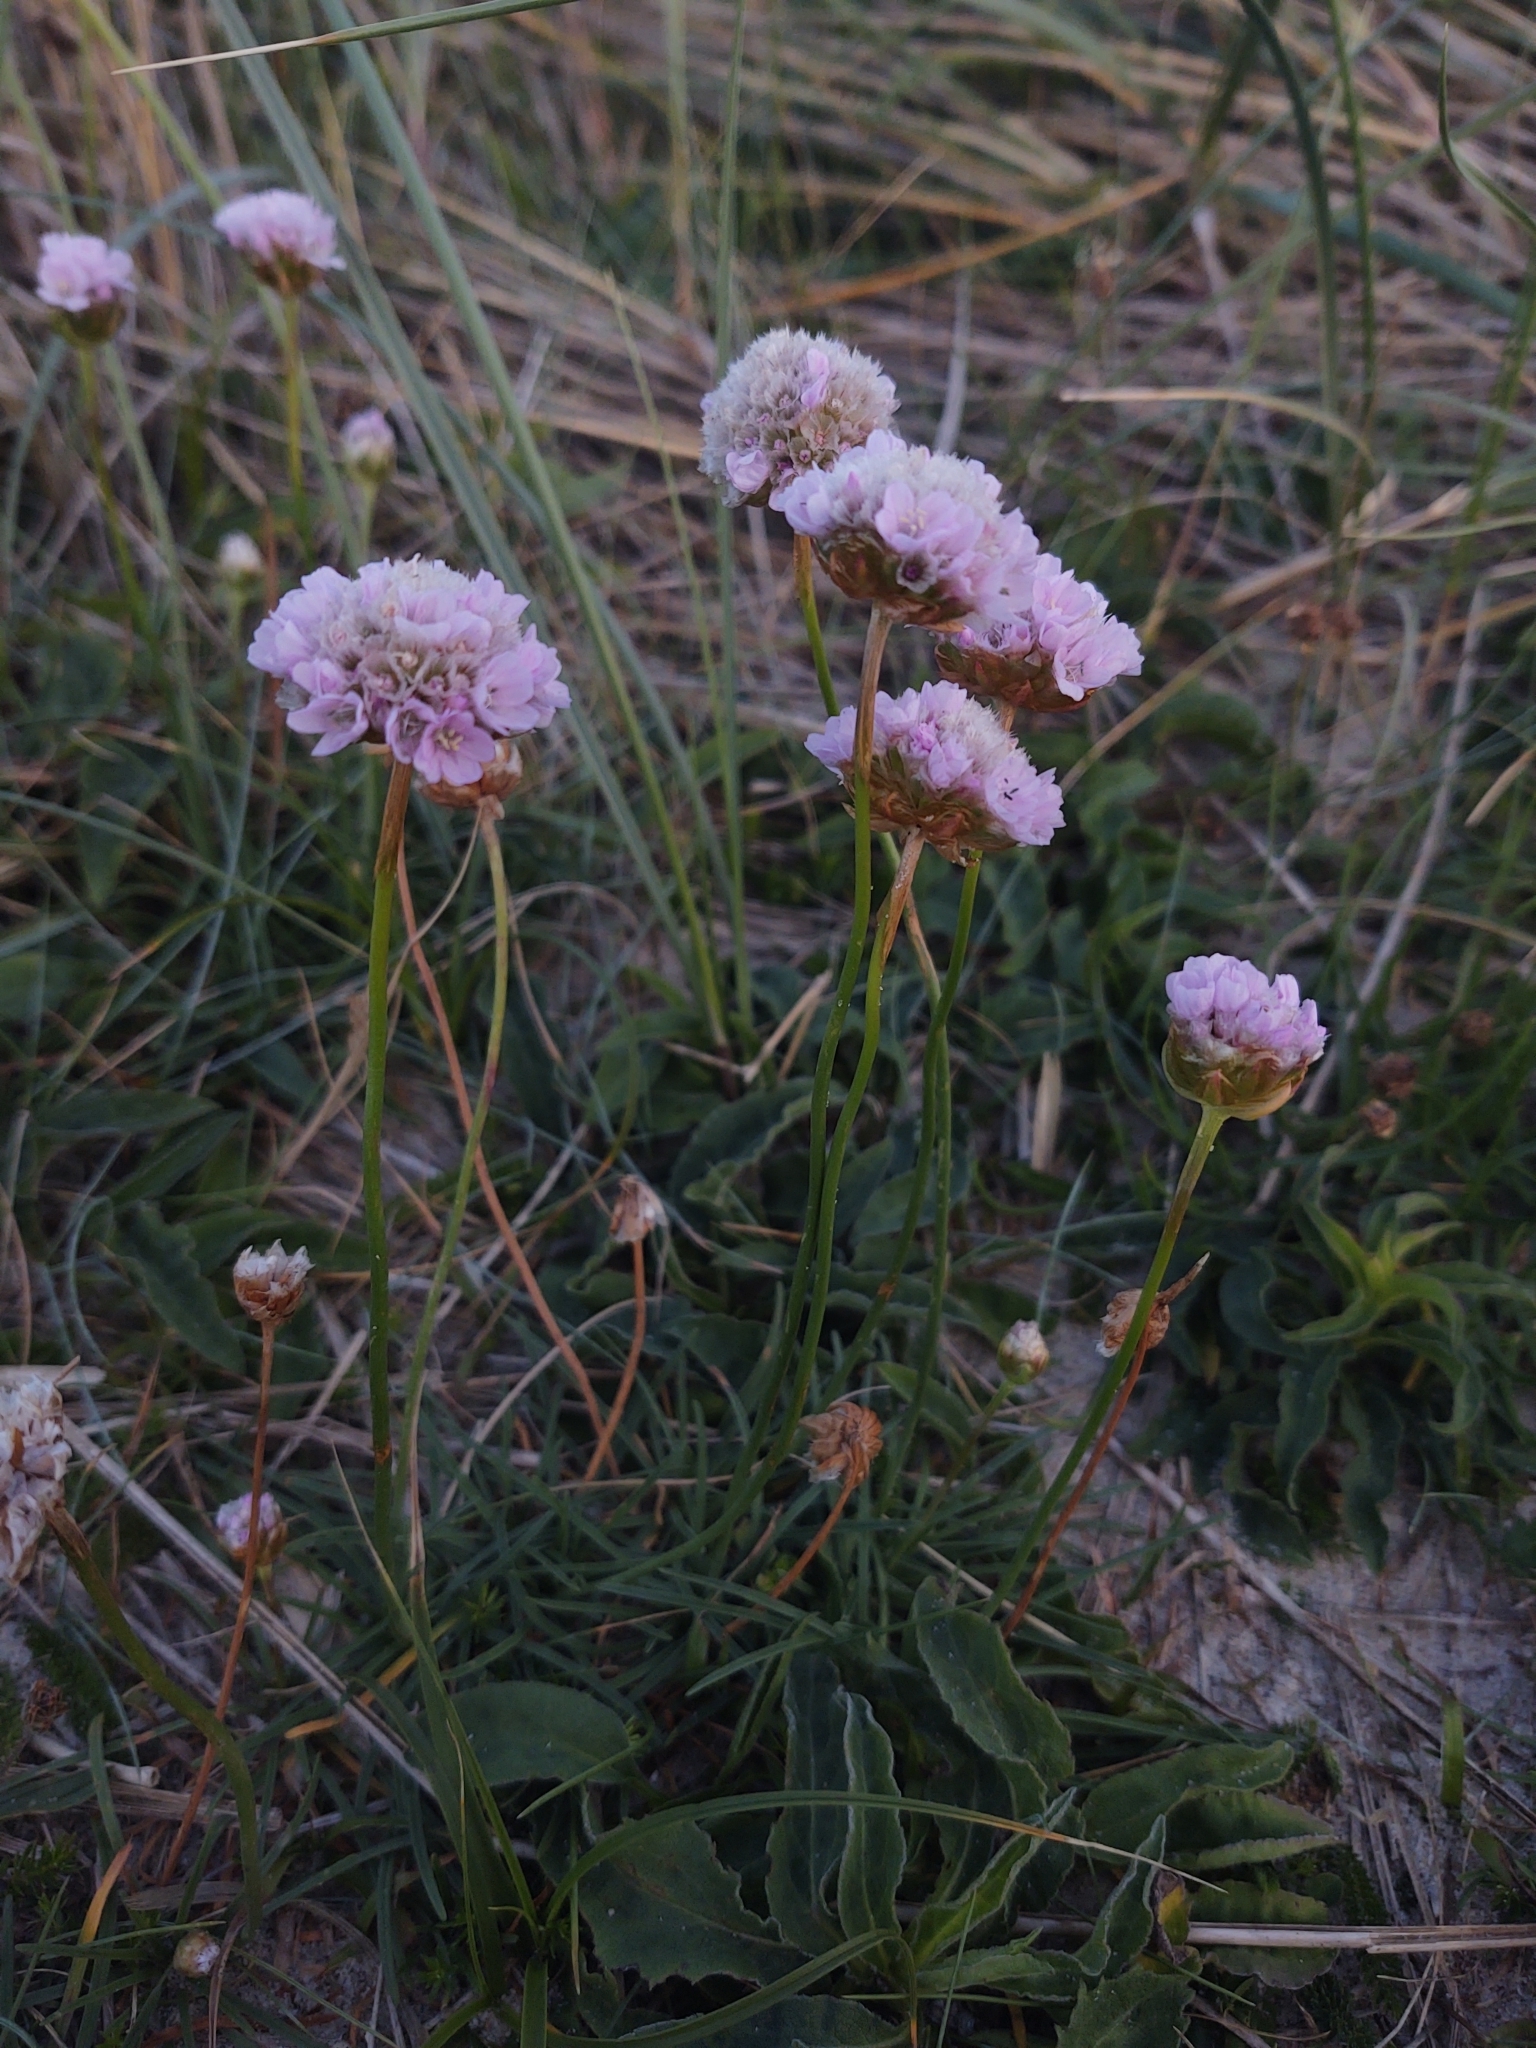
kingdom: Plantae
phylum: Tracheophyta
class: Magnoliopsida
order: Caryophyllales
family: Plumbaginaceae
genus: Armeria
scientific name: Armeria maritima
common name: Thrift
